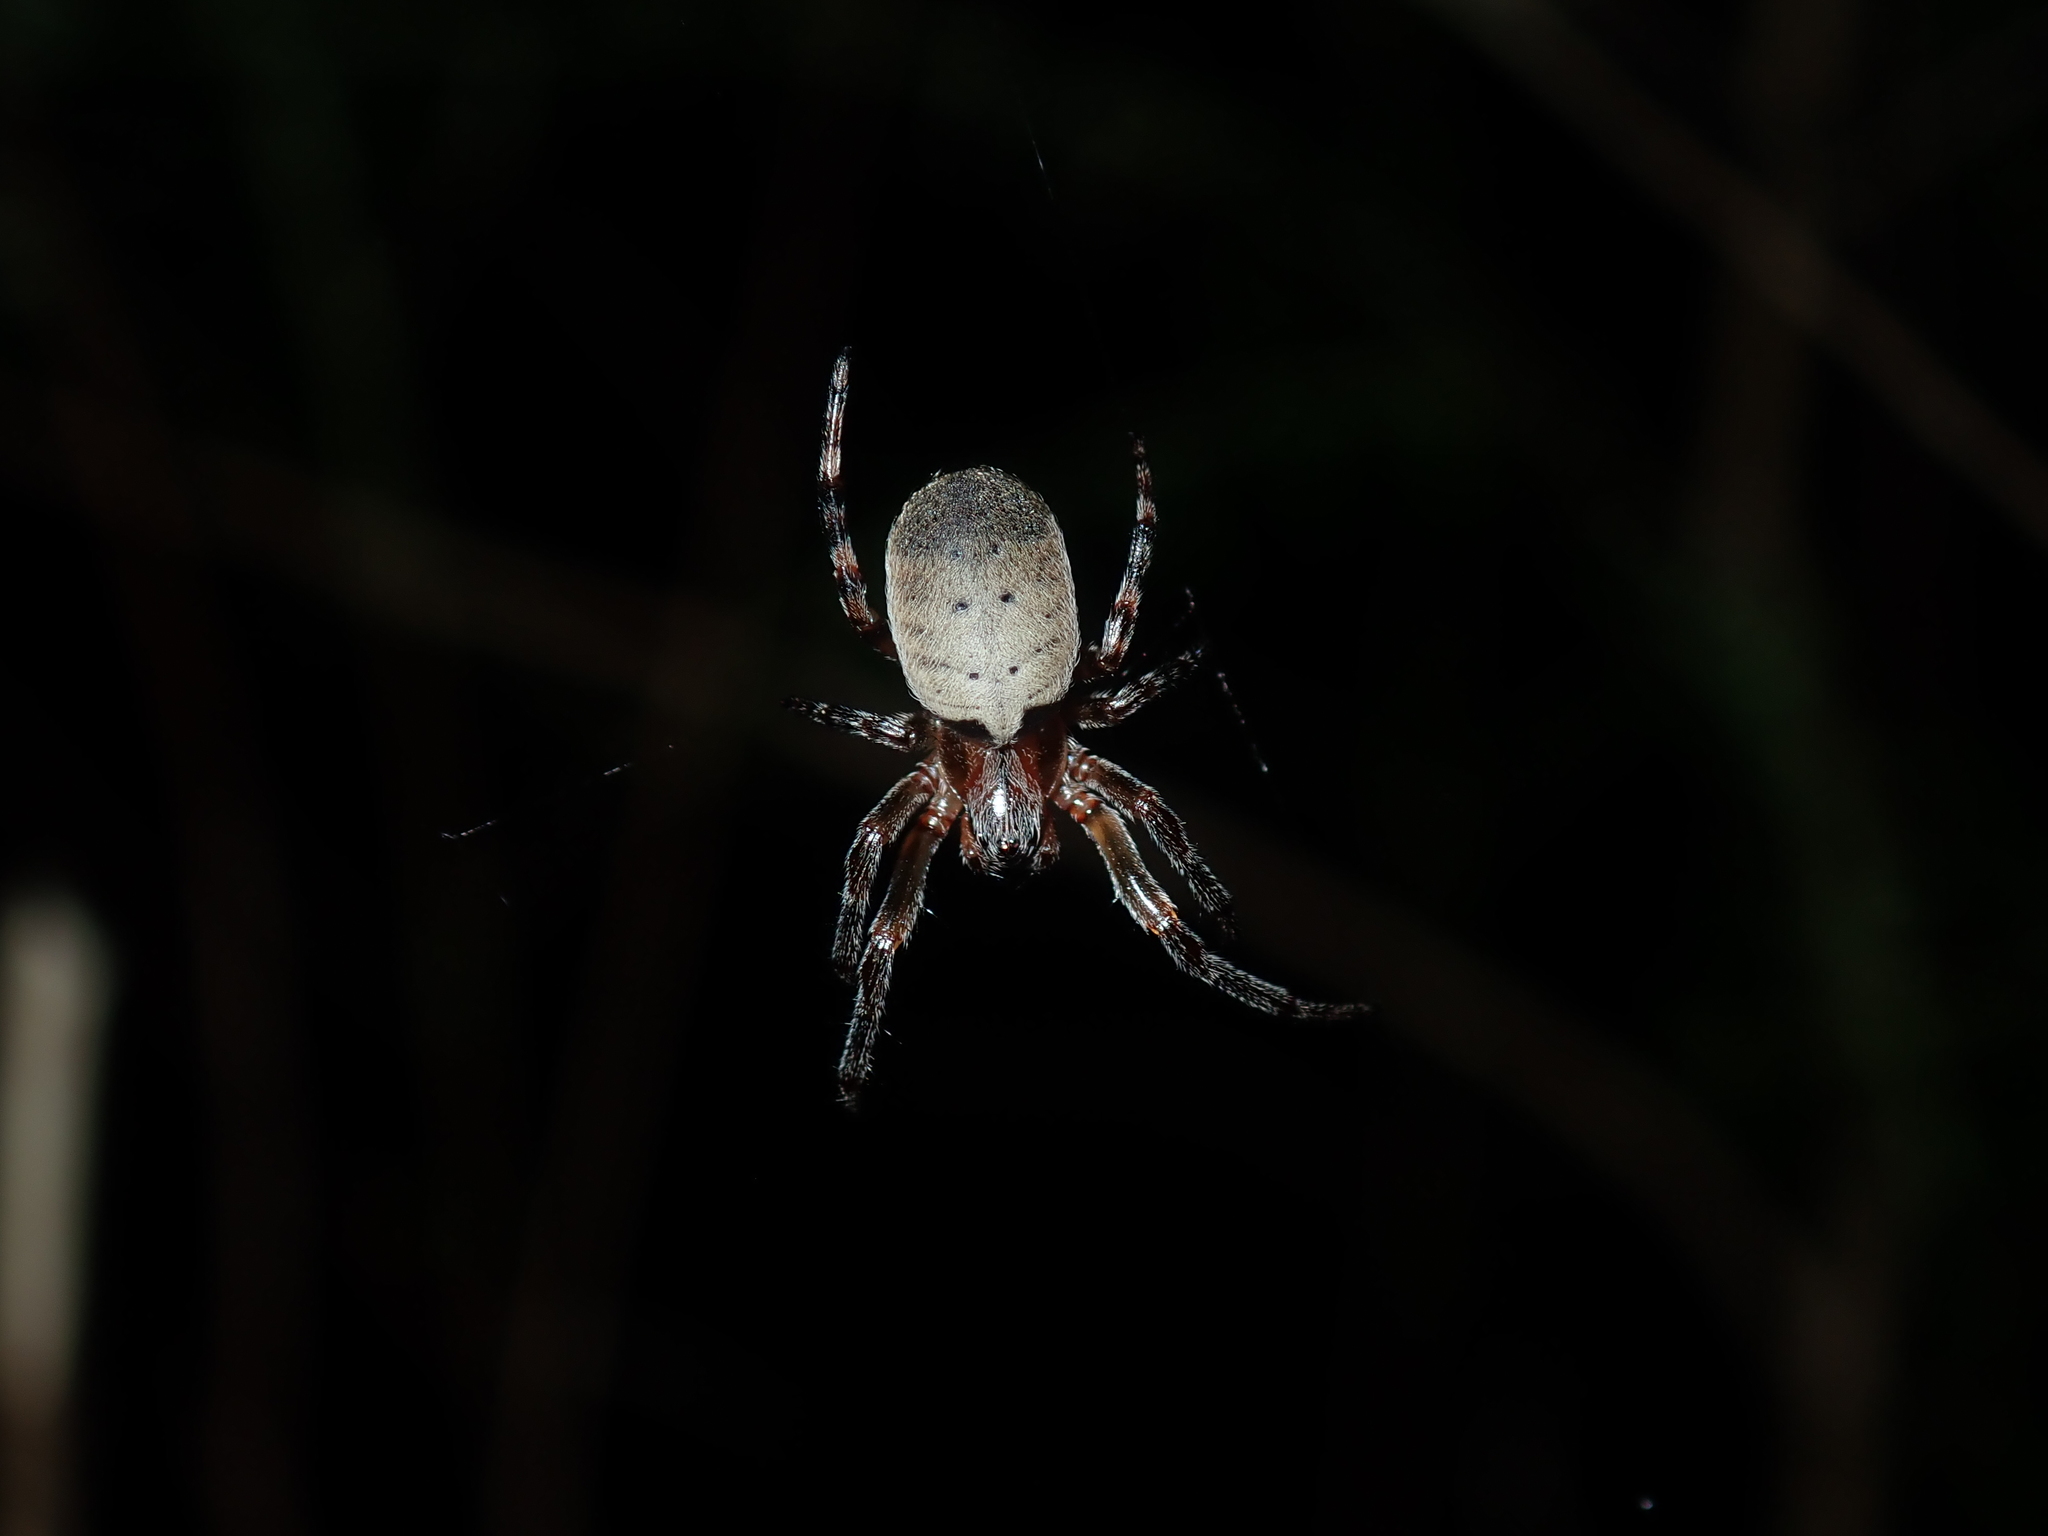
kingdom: Animalia
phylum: Arthropoda
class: Arachnida
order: Araneae
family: Araneidae
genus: Araneus
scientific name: Araneus dimidiatus
